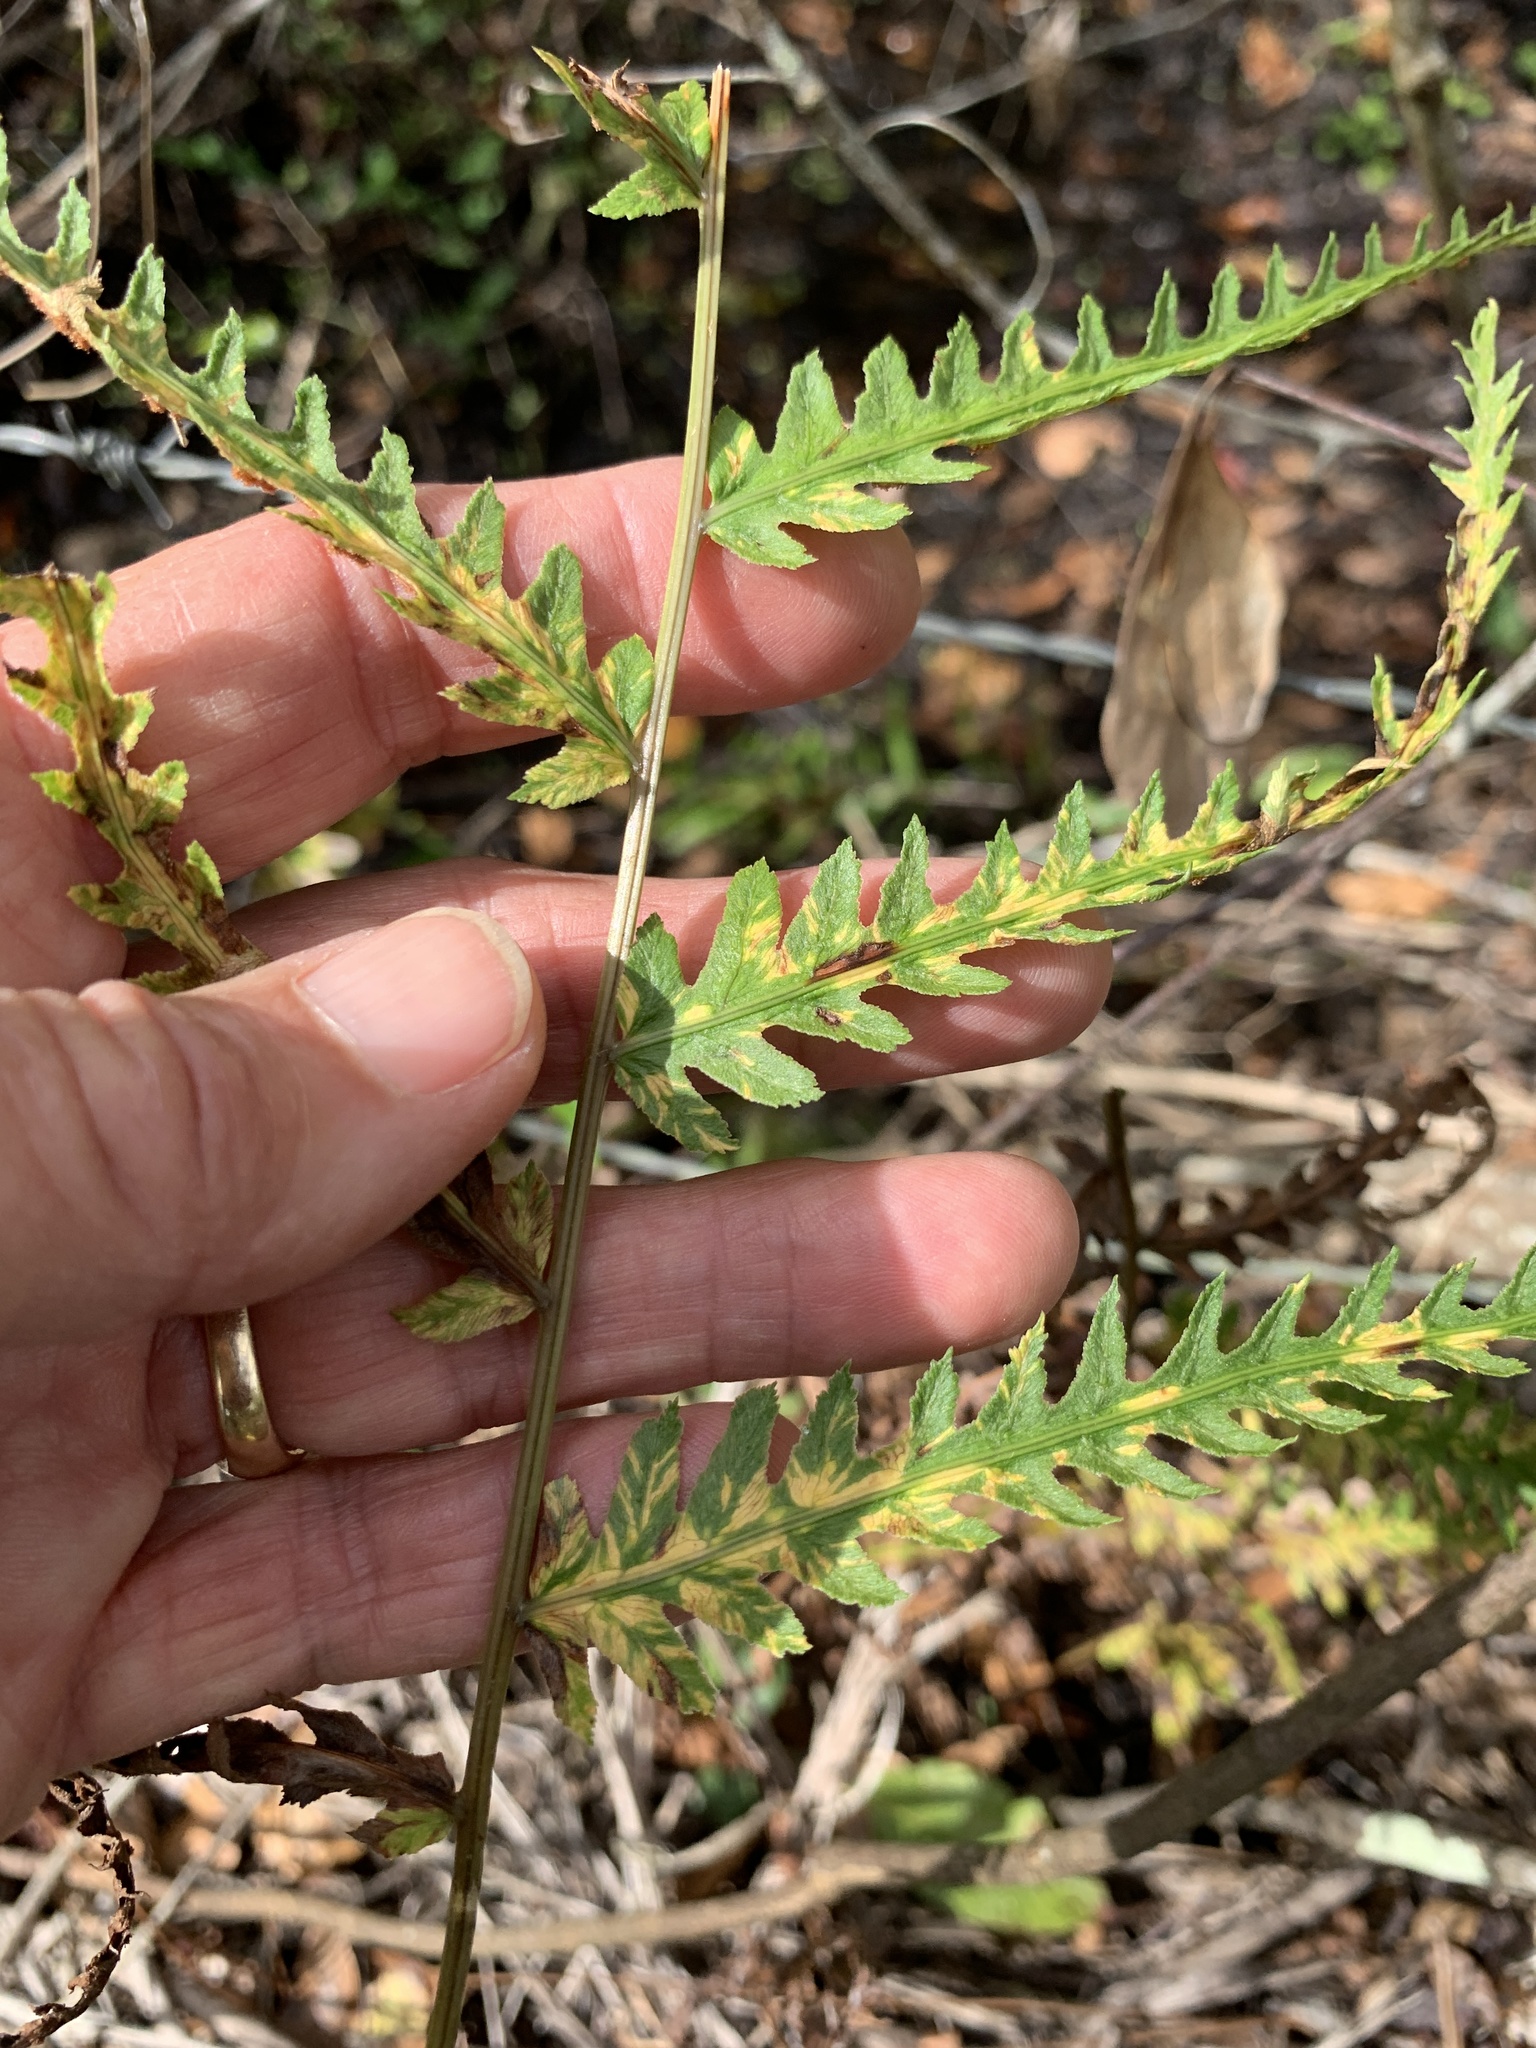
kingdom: Plantae
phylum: Tracheophyta
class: Polypodiopsida
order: Polypodiales
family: Blechnaceae
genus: Anchistea
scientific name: Anchistea virginica
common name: Virginia chain fern
